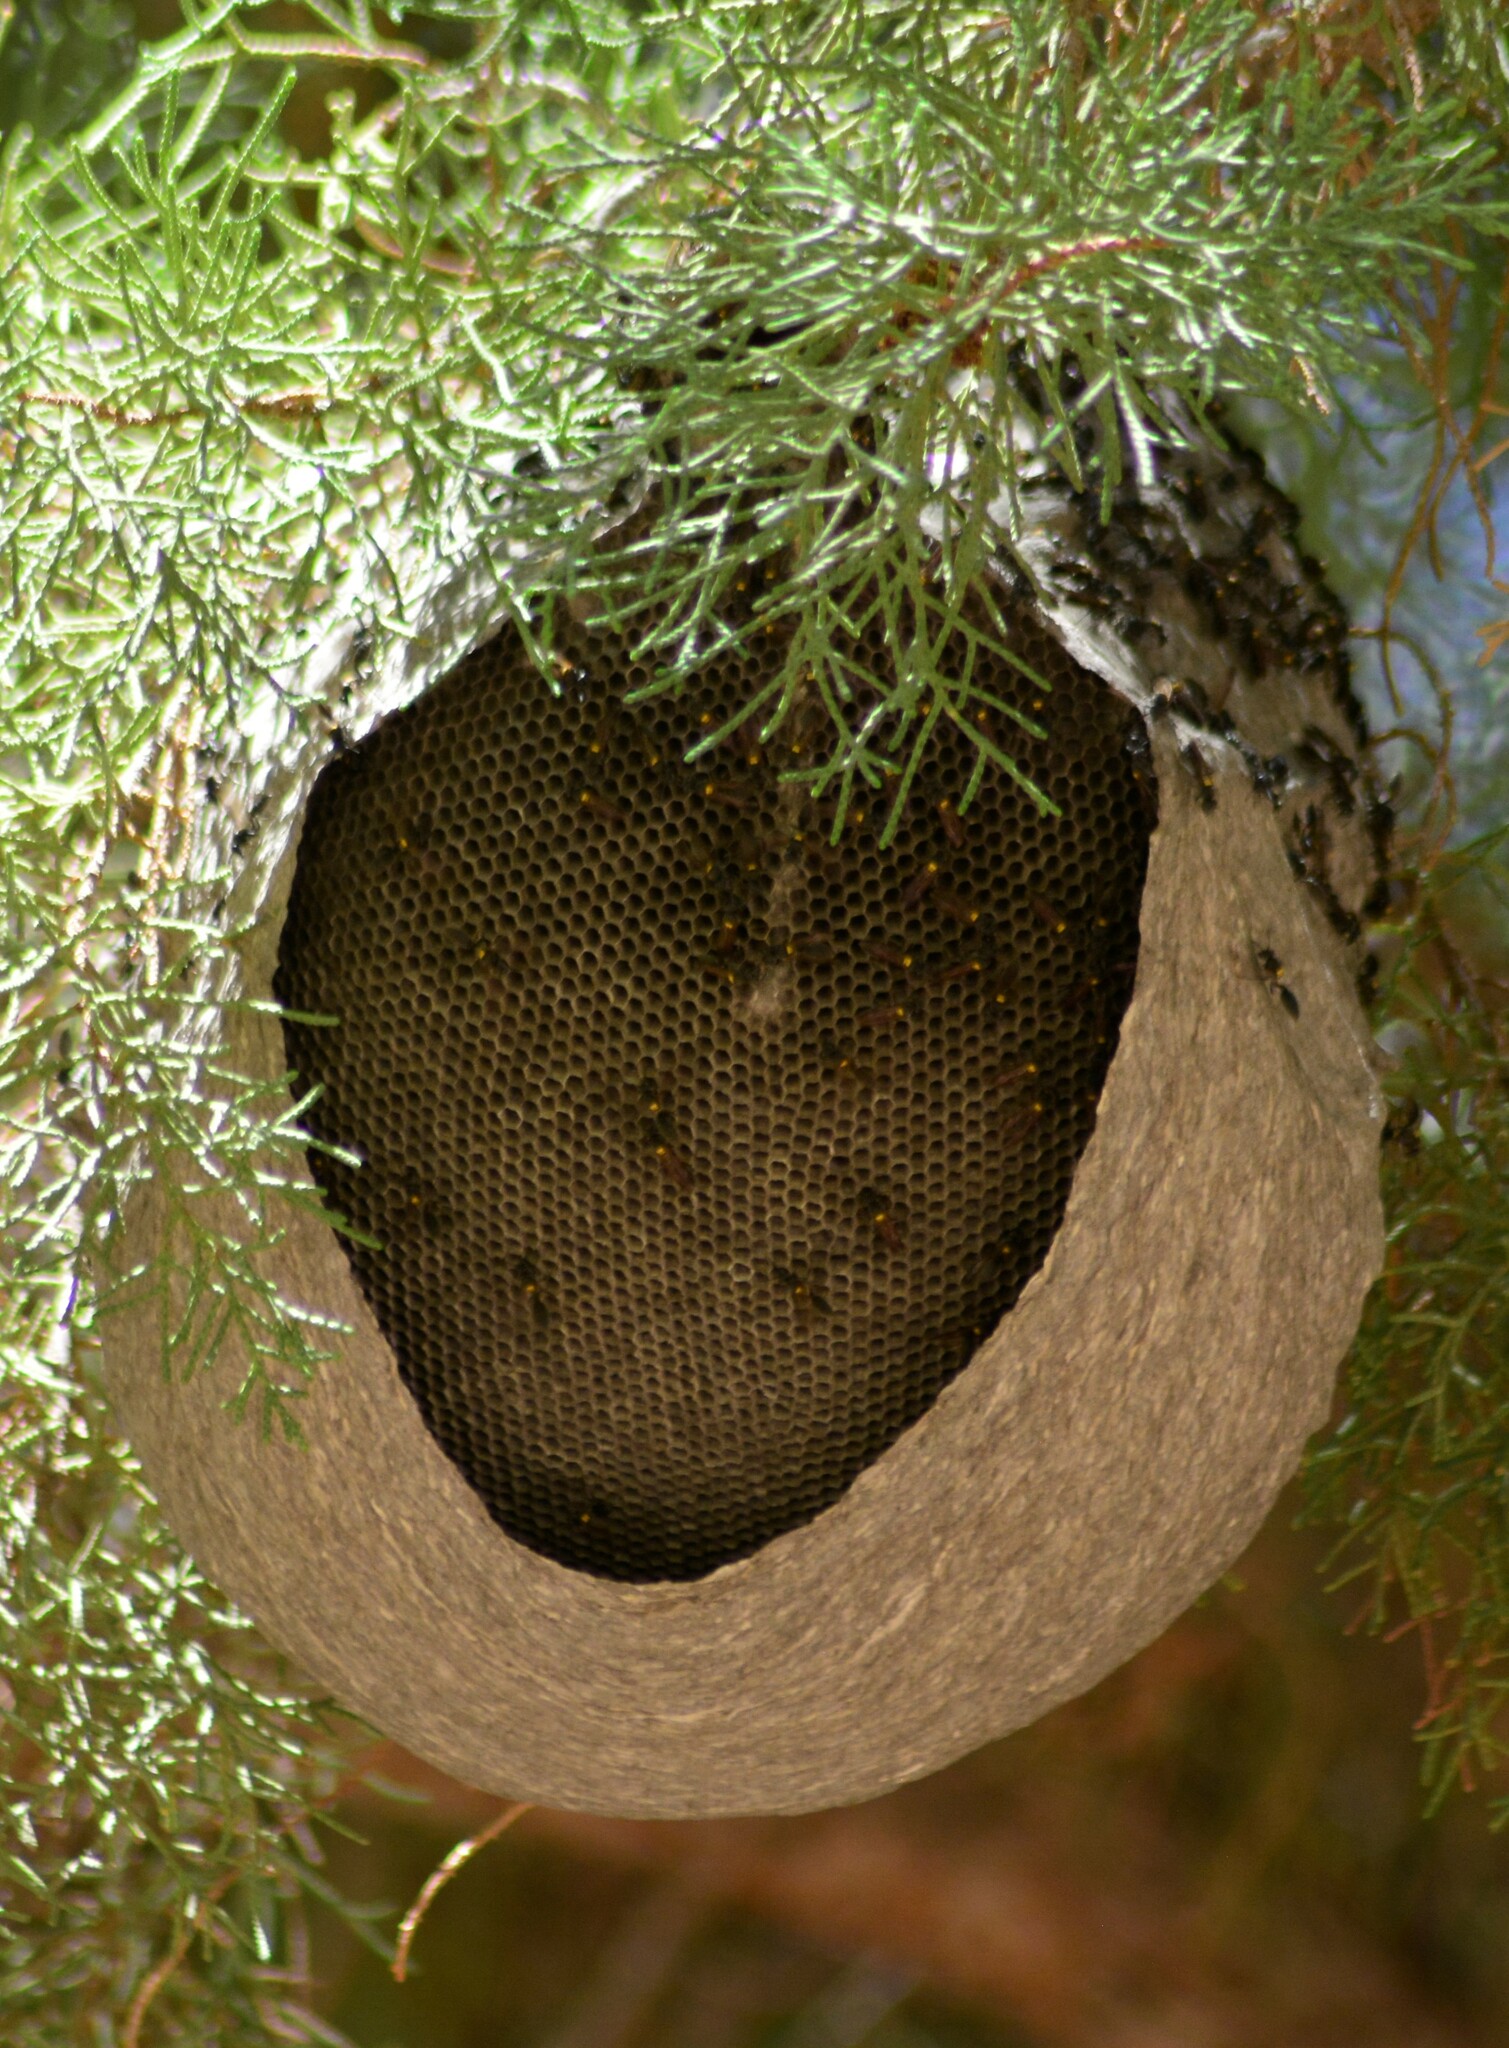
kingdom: Animalia
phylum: Arthropoda
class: Insecta
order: Hymenoptera
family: Eumenidae
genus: Polybia
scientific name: Polybia scutellaris
